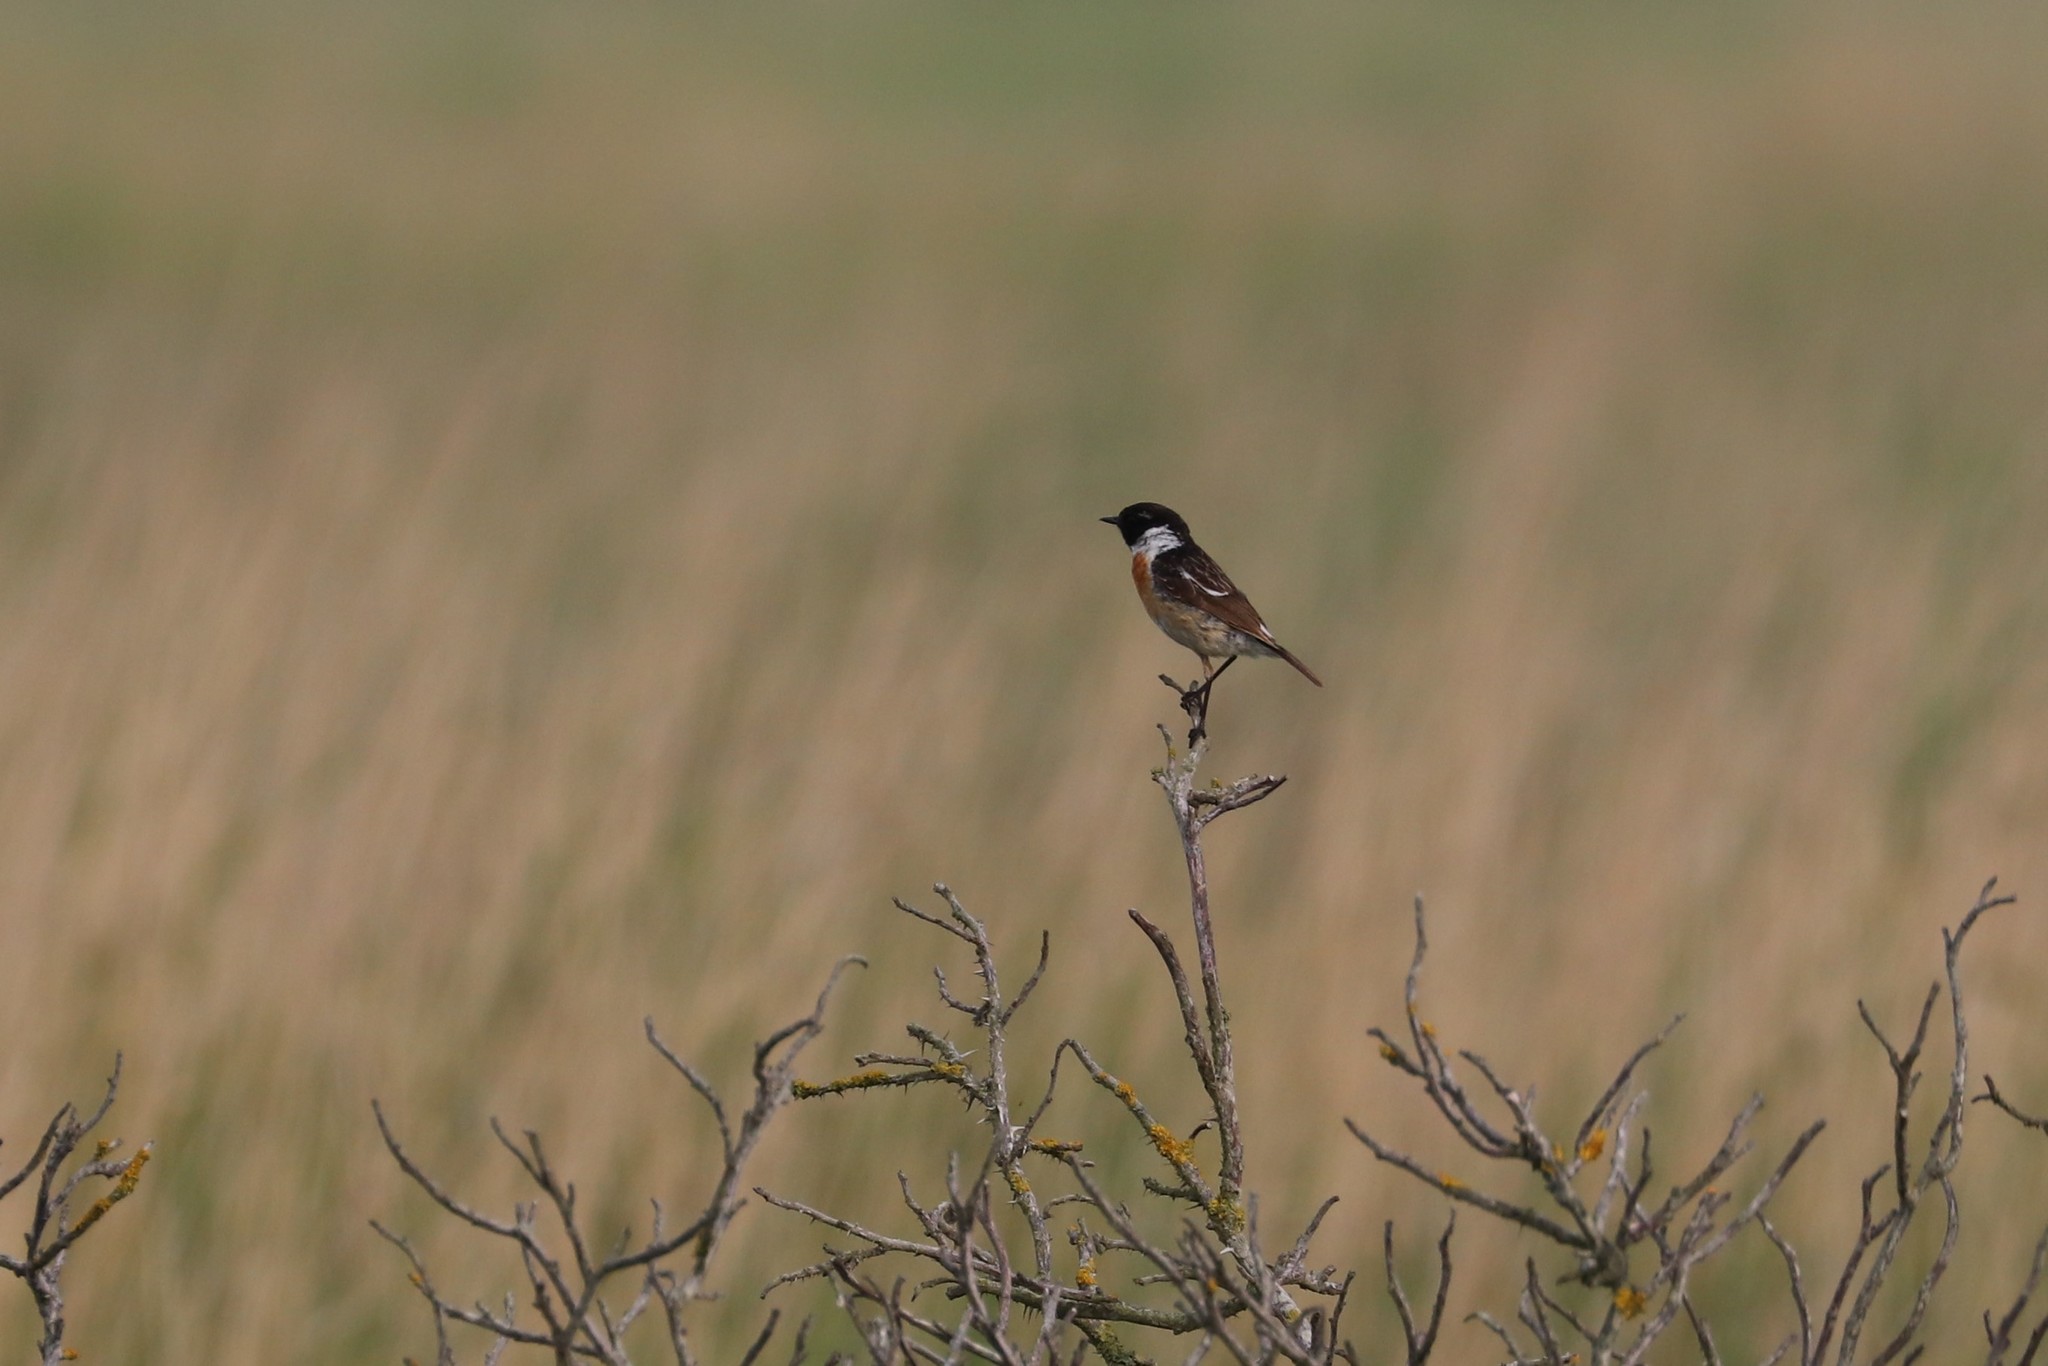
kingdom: Animalia
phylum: Chordata
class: Aves
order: Passeriformes
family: Muscicapidae
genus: Saxicola
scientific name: Saxicola rubicola
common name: European stonechat
